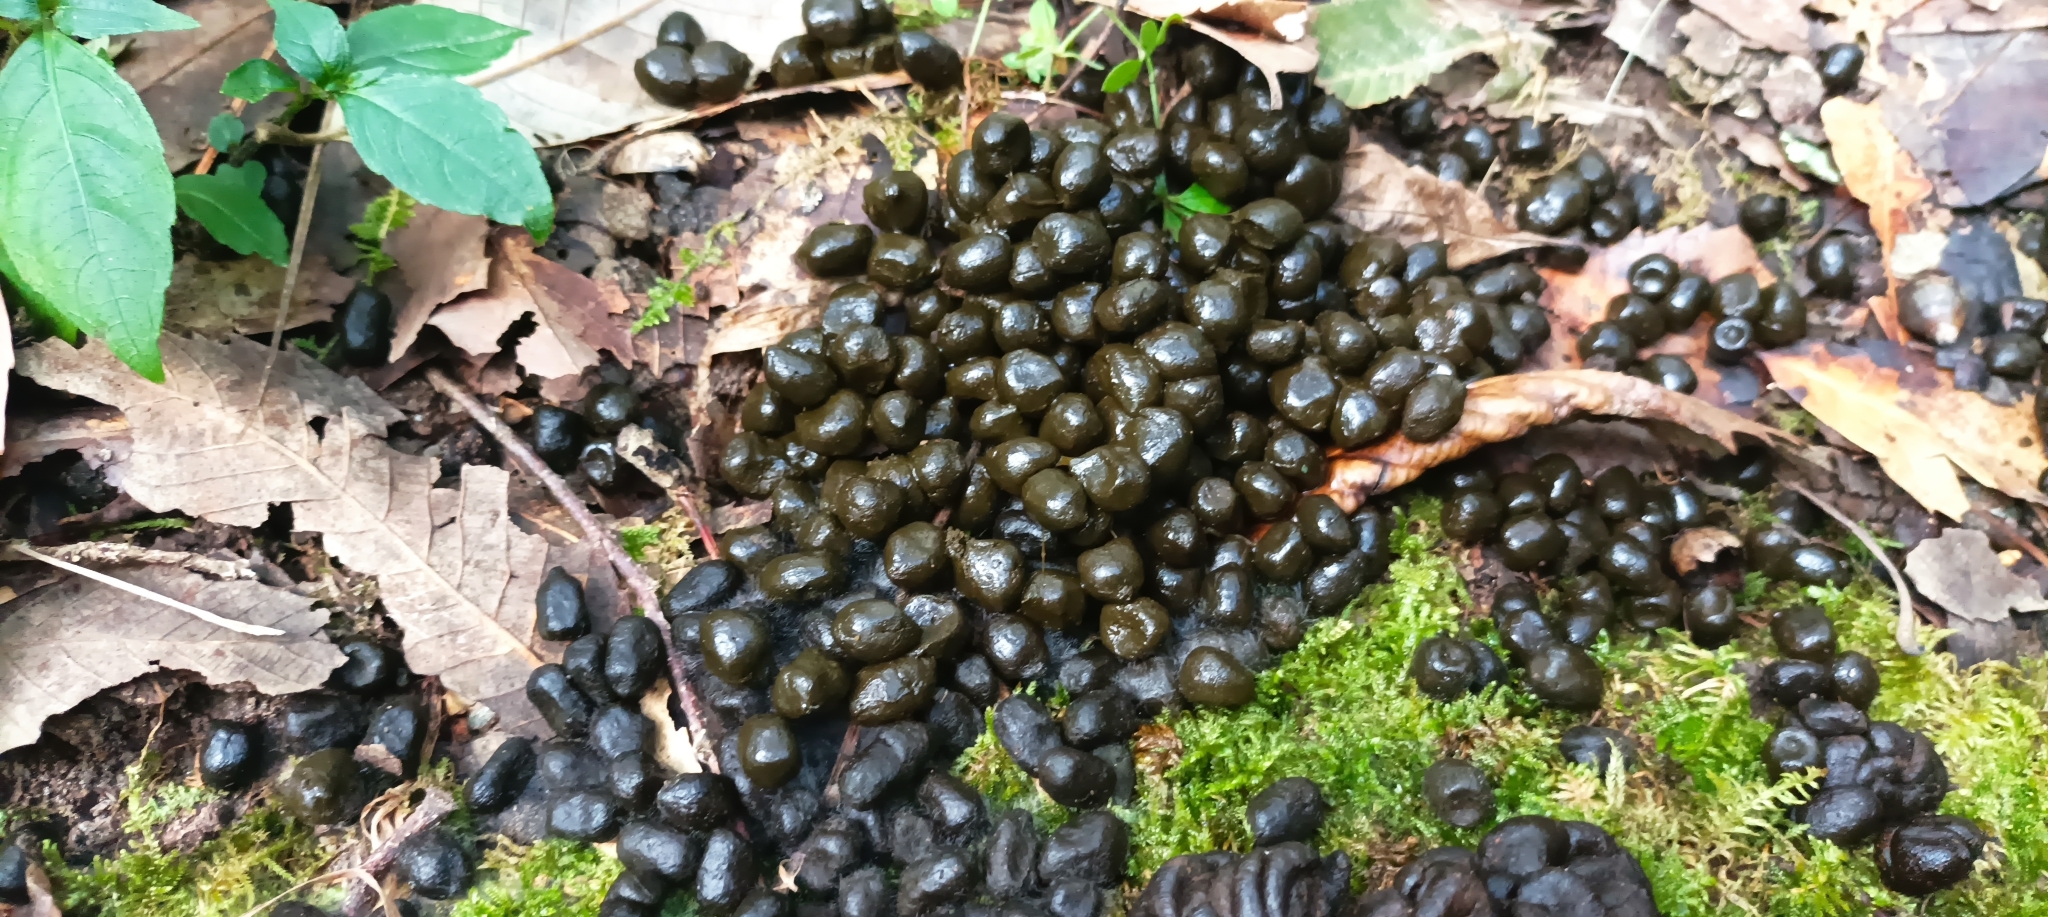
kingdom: Animalia
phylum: Chordata
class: Mammalia
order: Artiodactyla
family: Cervidae
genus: Muntiacus
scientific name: Muntiacus muntjak
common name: Indian muntjac
